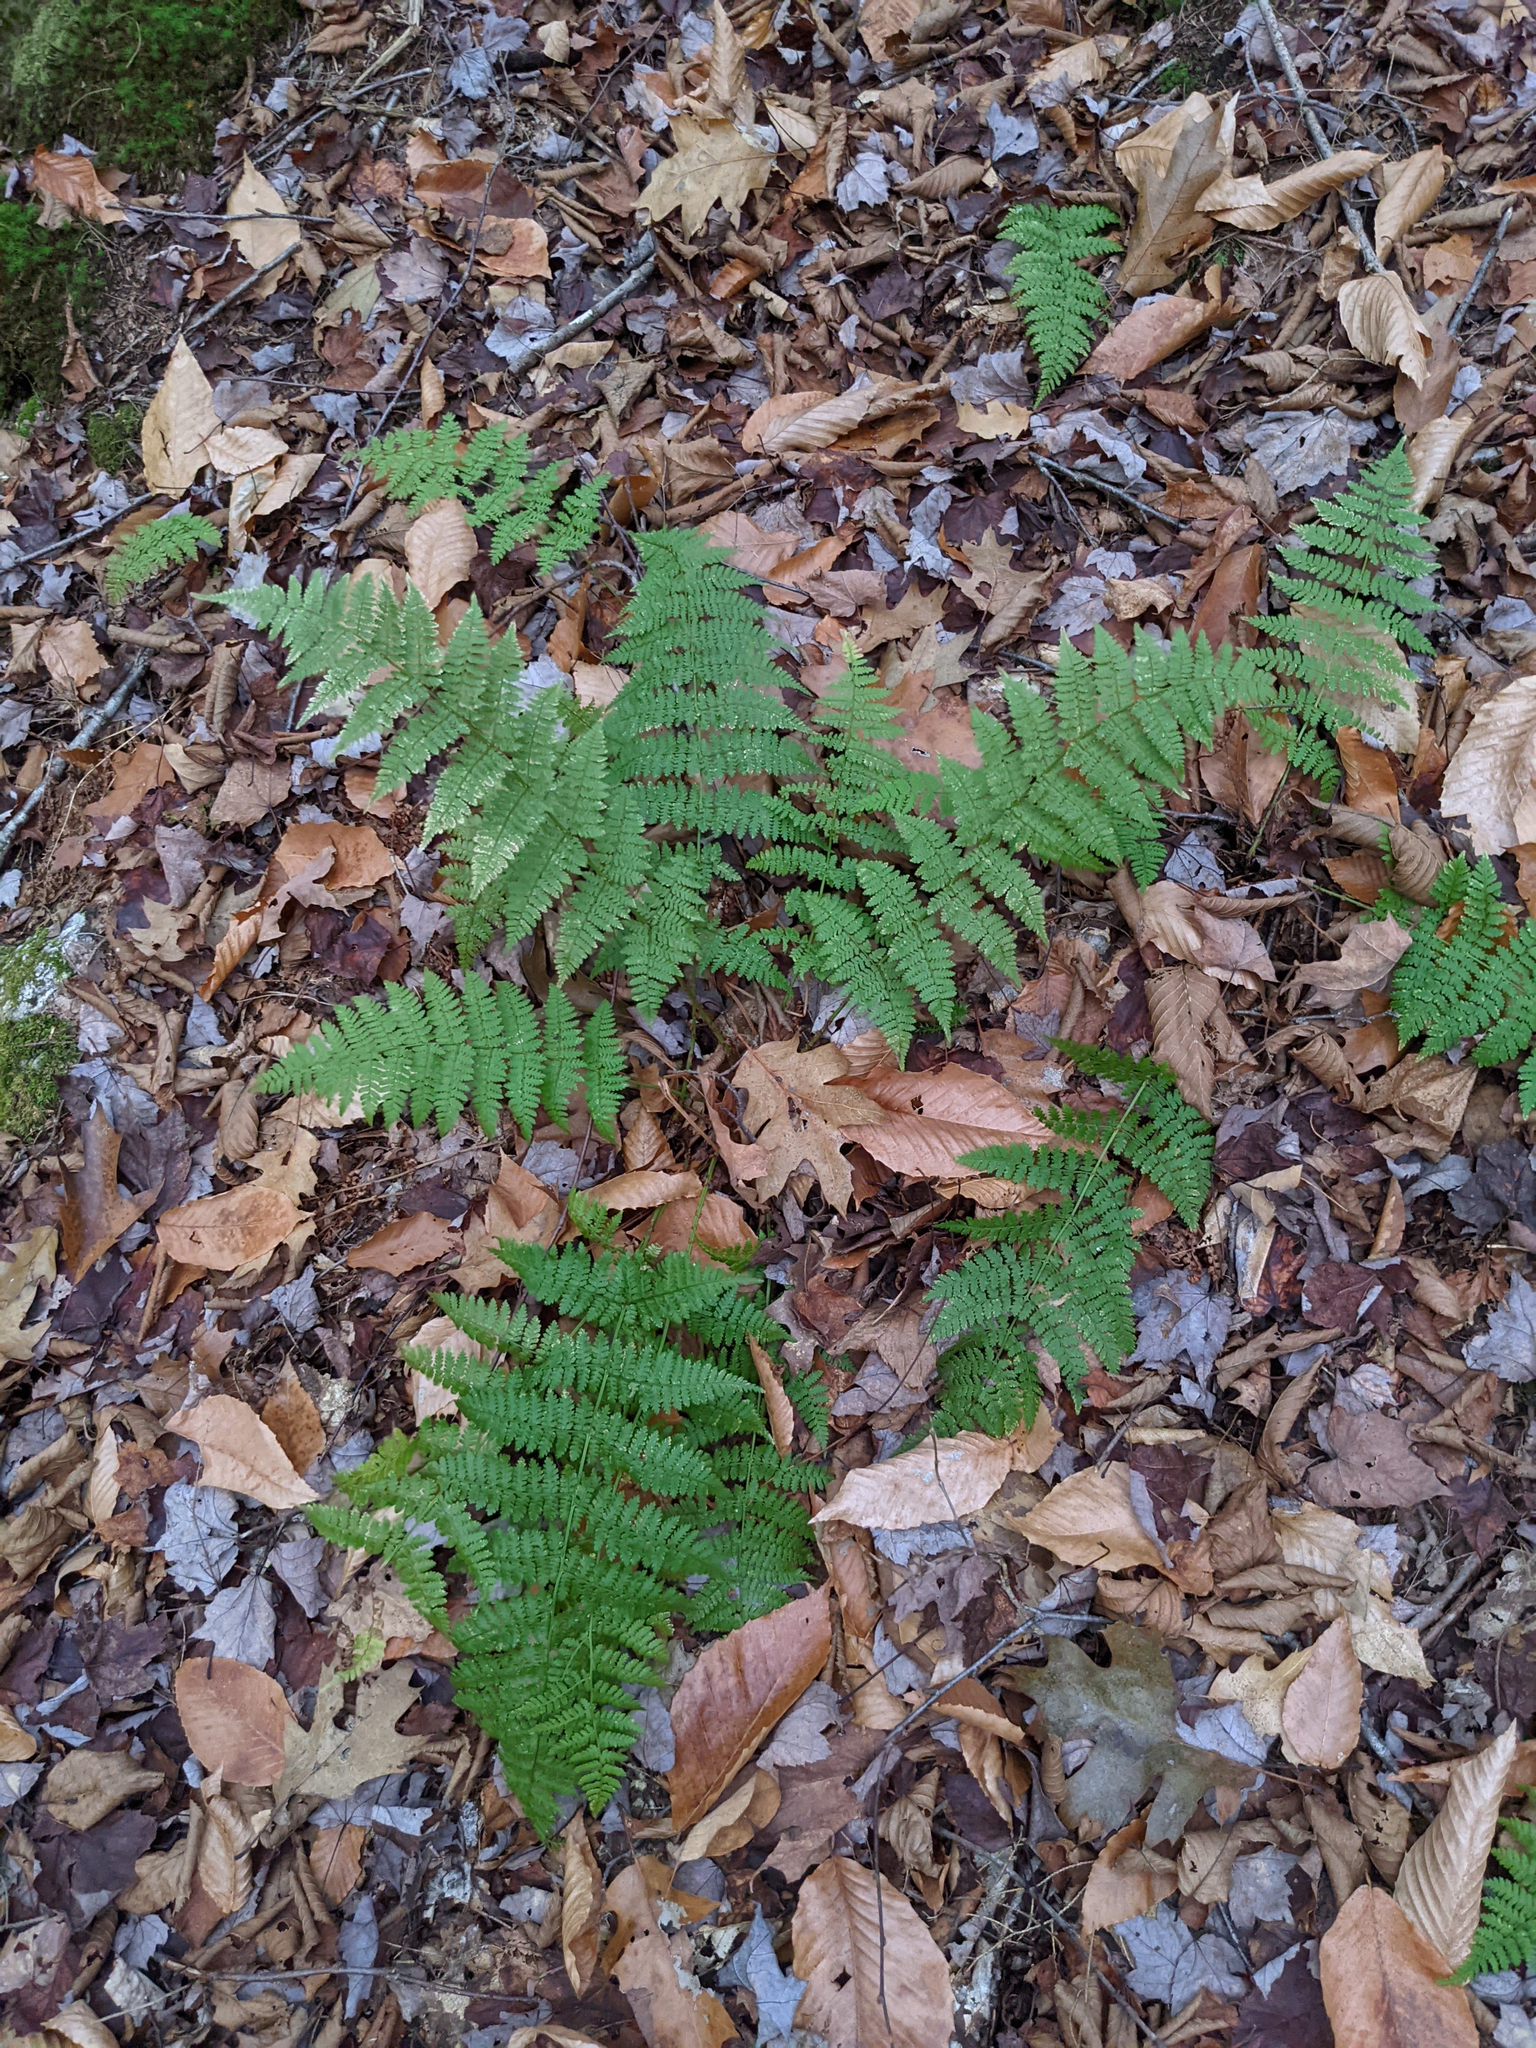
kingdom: Plantae
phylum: Tracheophyta
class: Polypodiopsida
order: Polypodiales
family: Dryopteridaceae
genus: Dryopteris
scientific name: Dryopteris intermedia
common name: Evergreen wood fern
